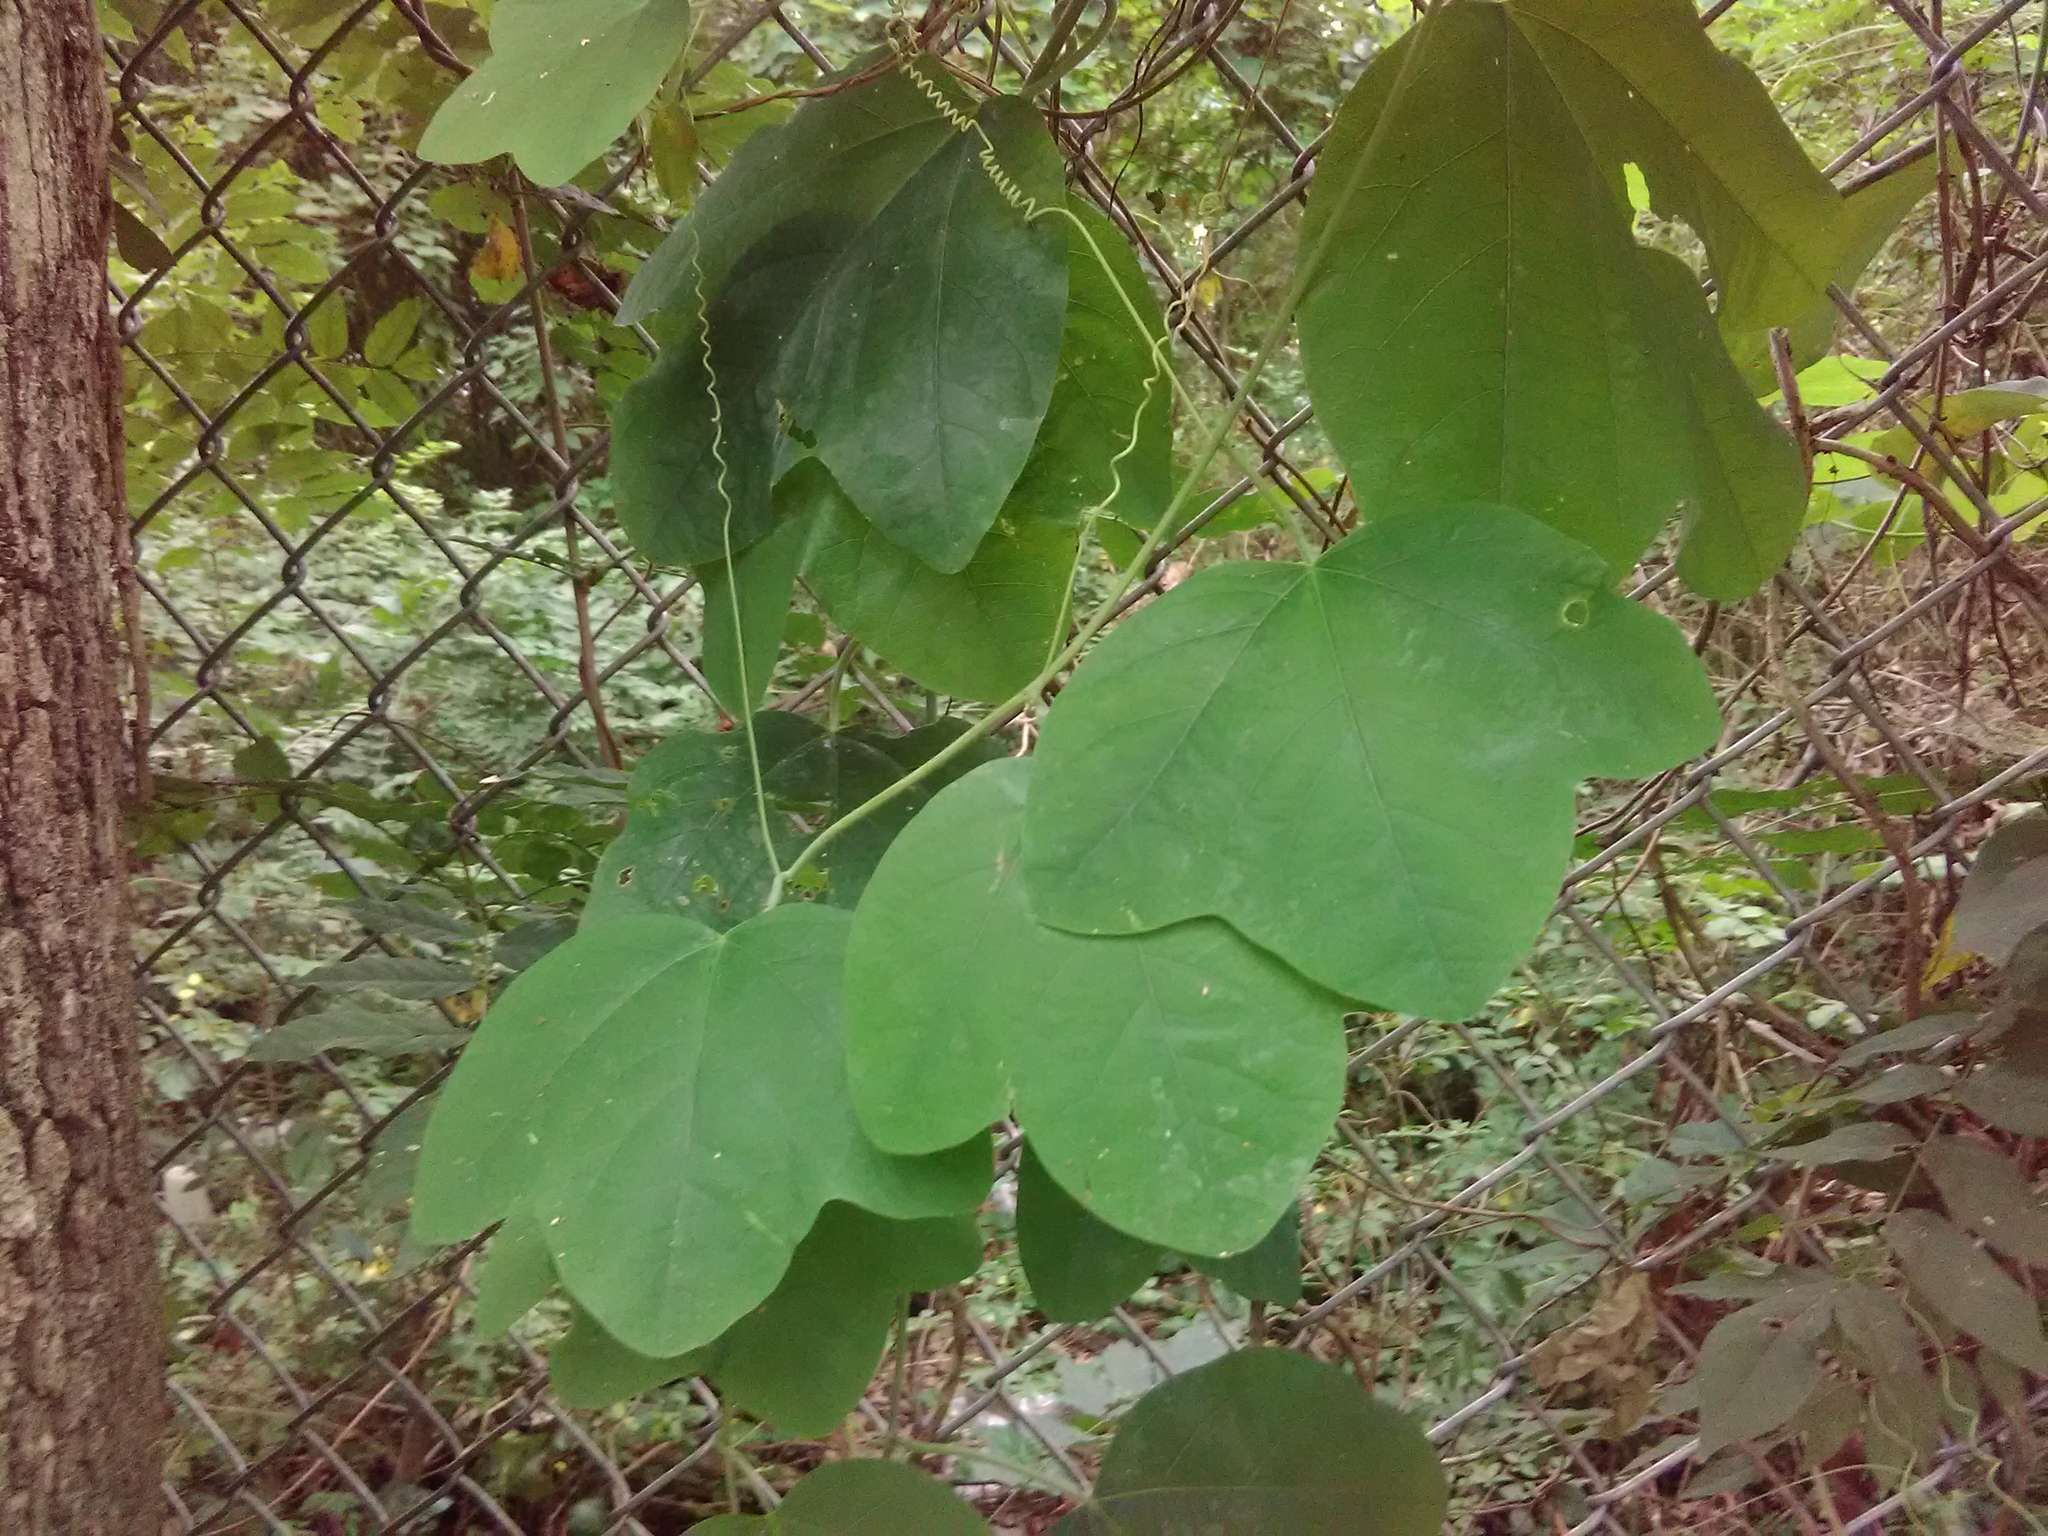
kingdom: Plantae
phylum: Tracheophyta
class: Magnoliopsida
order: Malpighiales
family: Passifloraceae
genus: Passiflora
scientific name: Passiflora lutea
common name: Yellow passionflower
